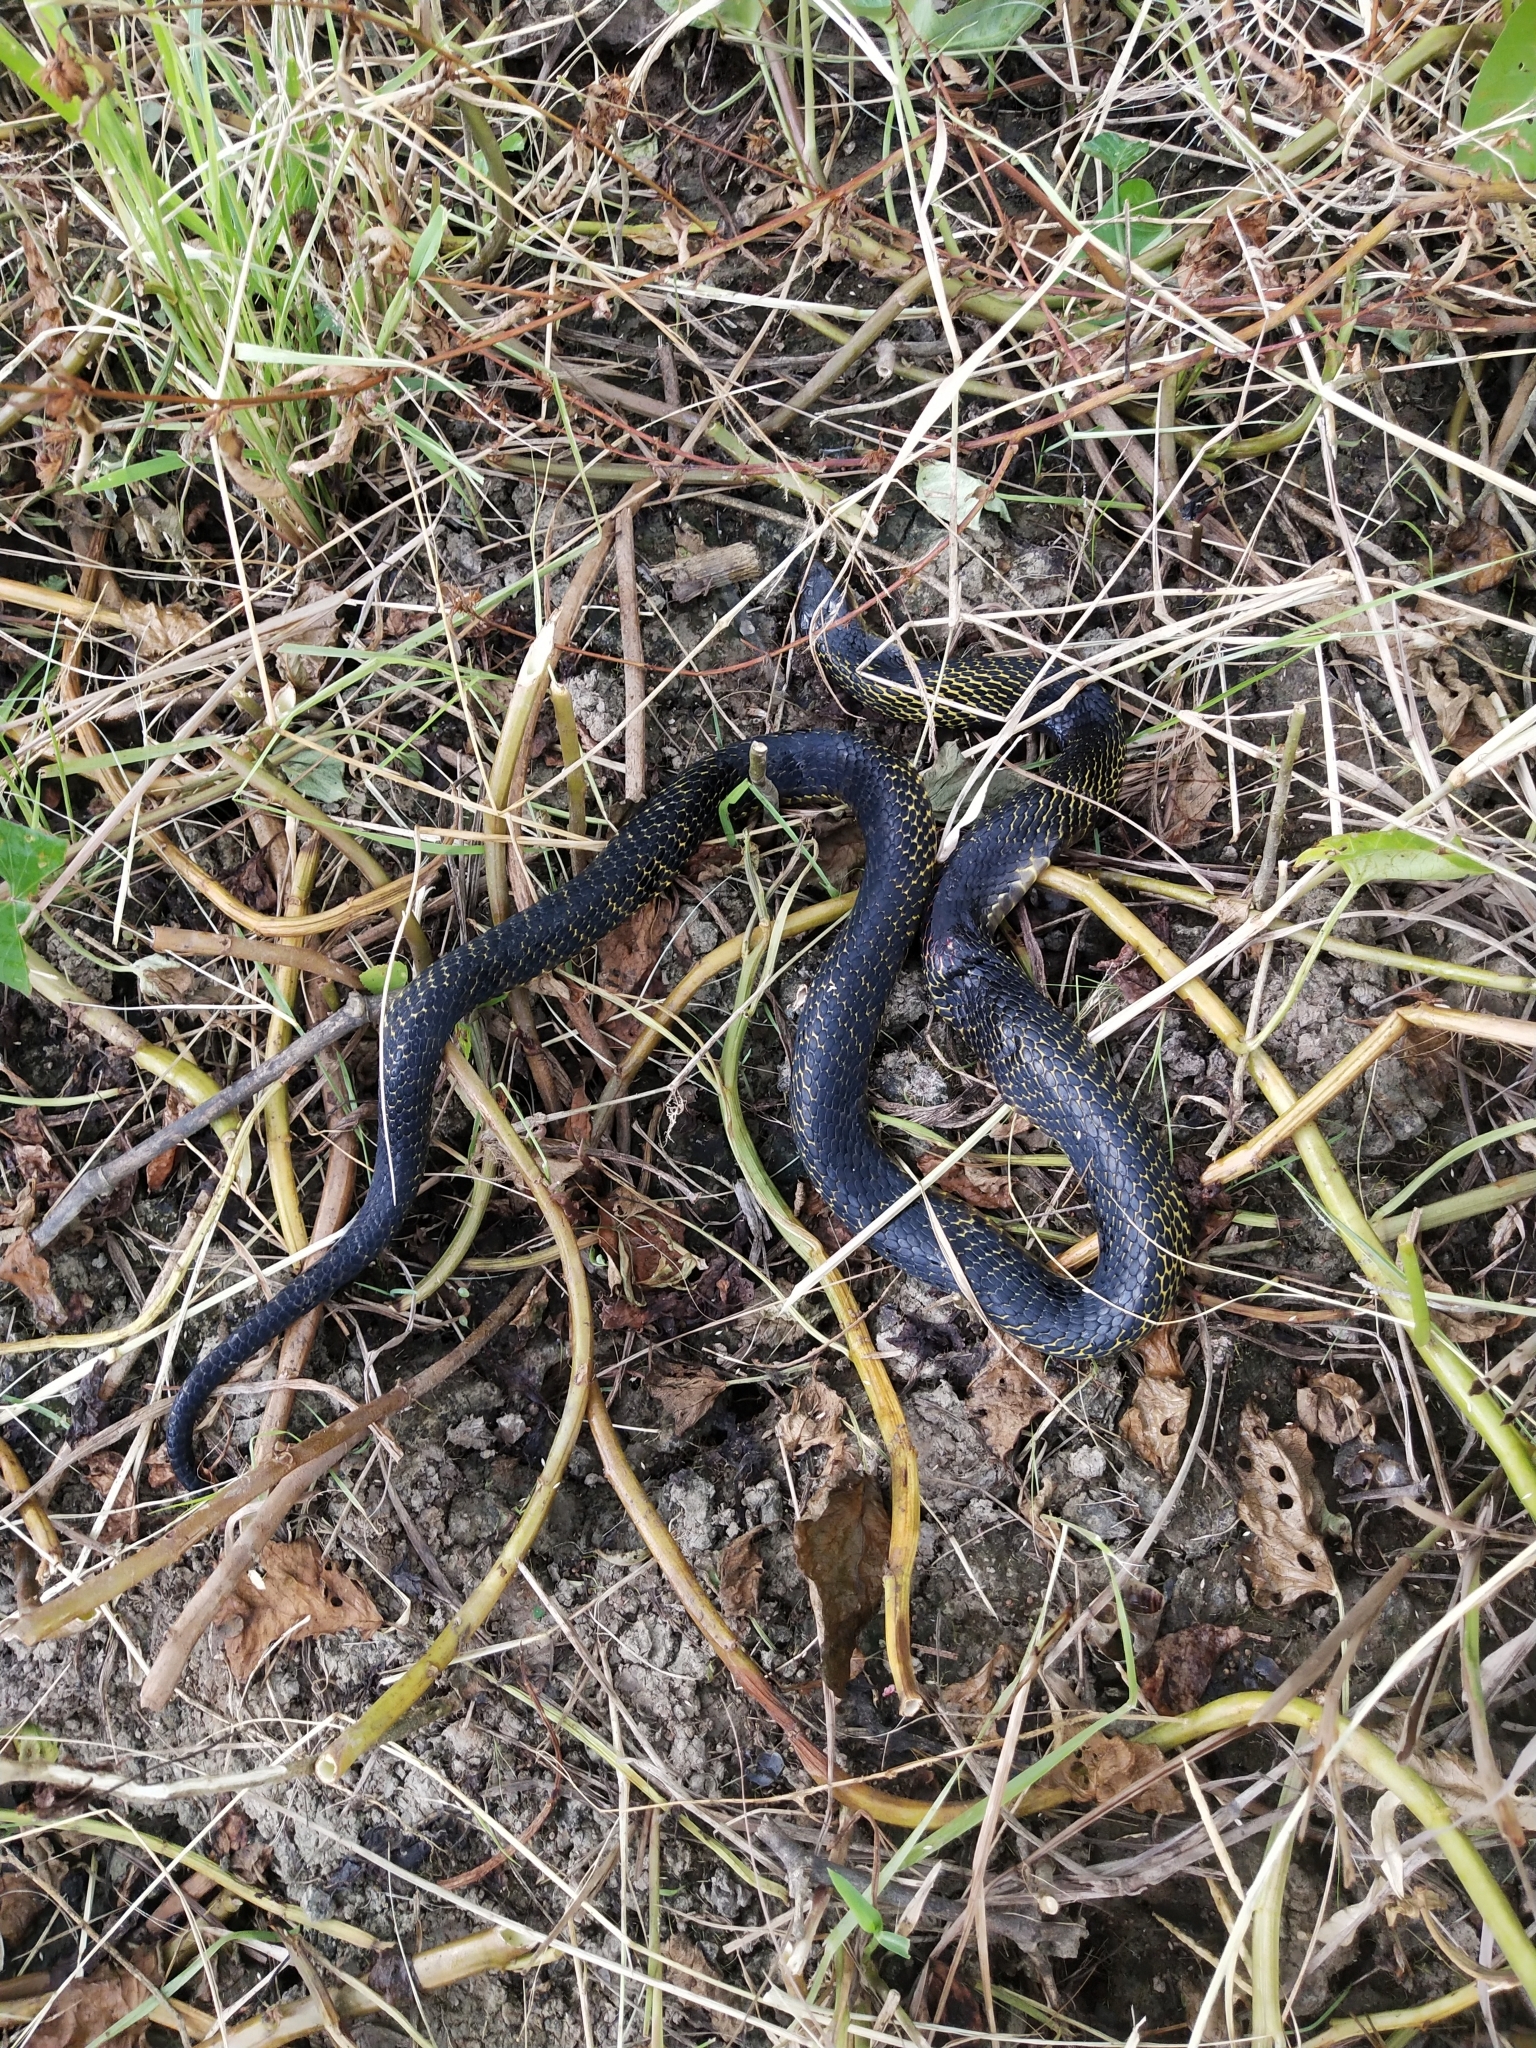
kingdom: Animalia
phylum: Chordata
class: Squamata
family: Elapidae
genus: Naja
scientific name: Naja samarensis
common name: Samar cobra
